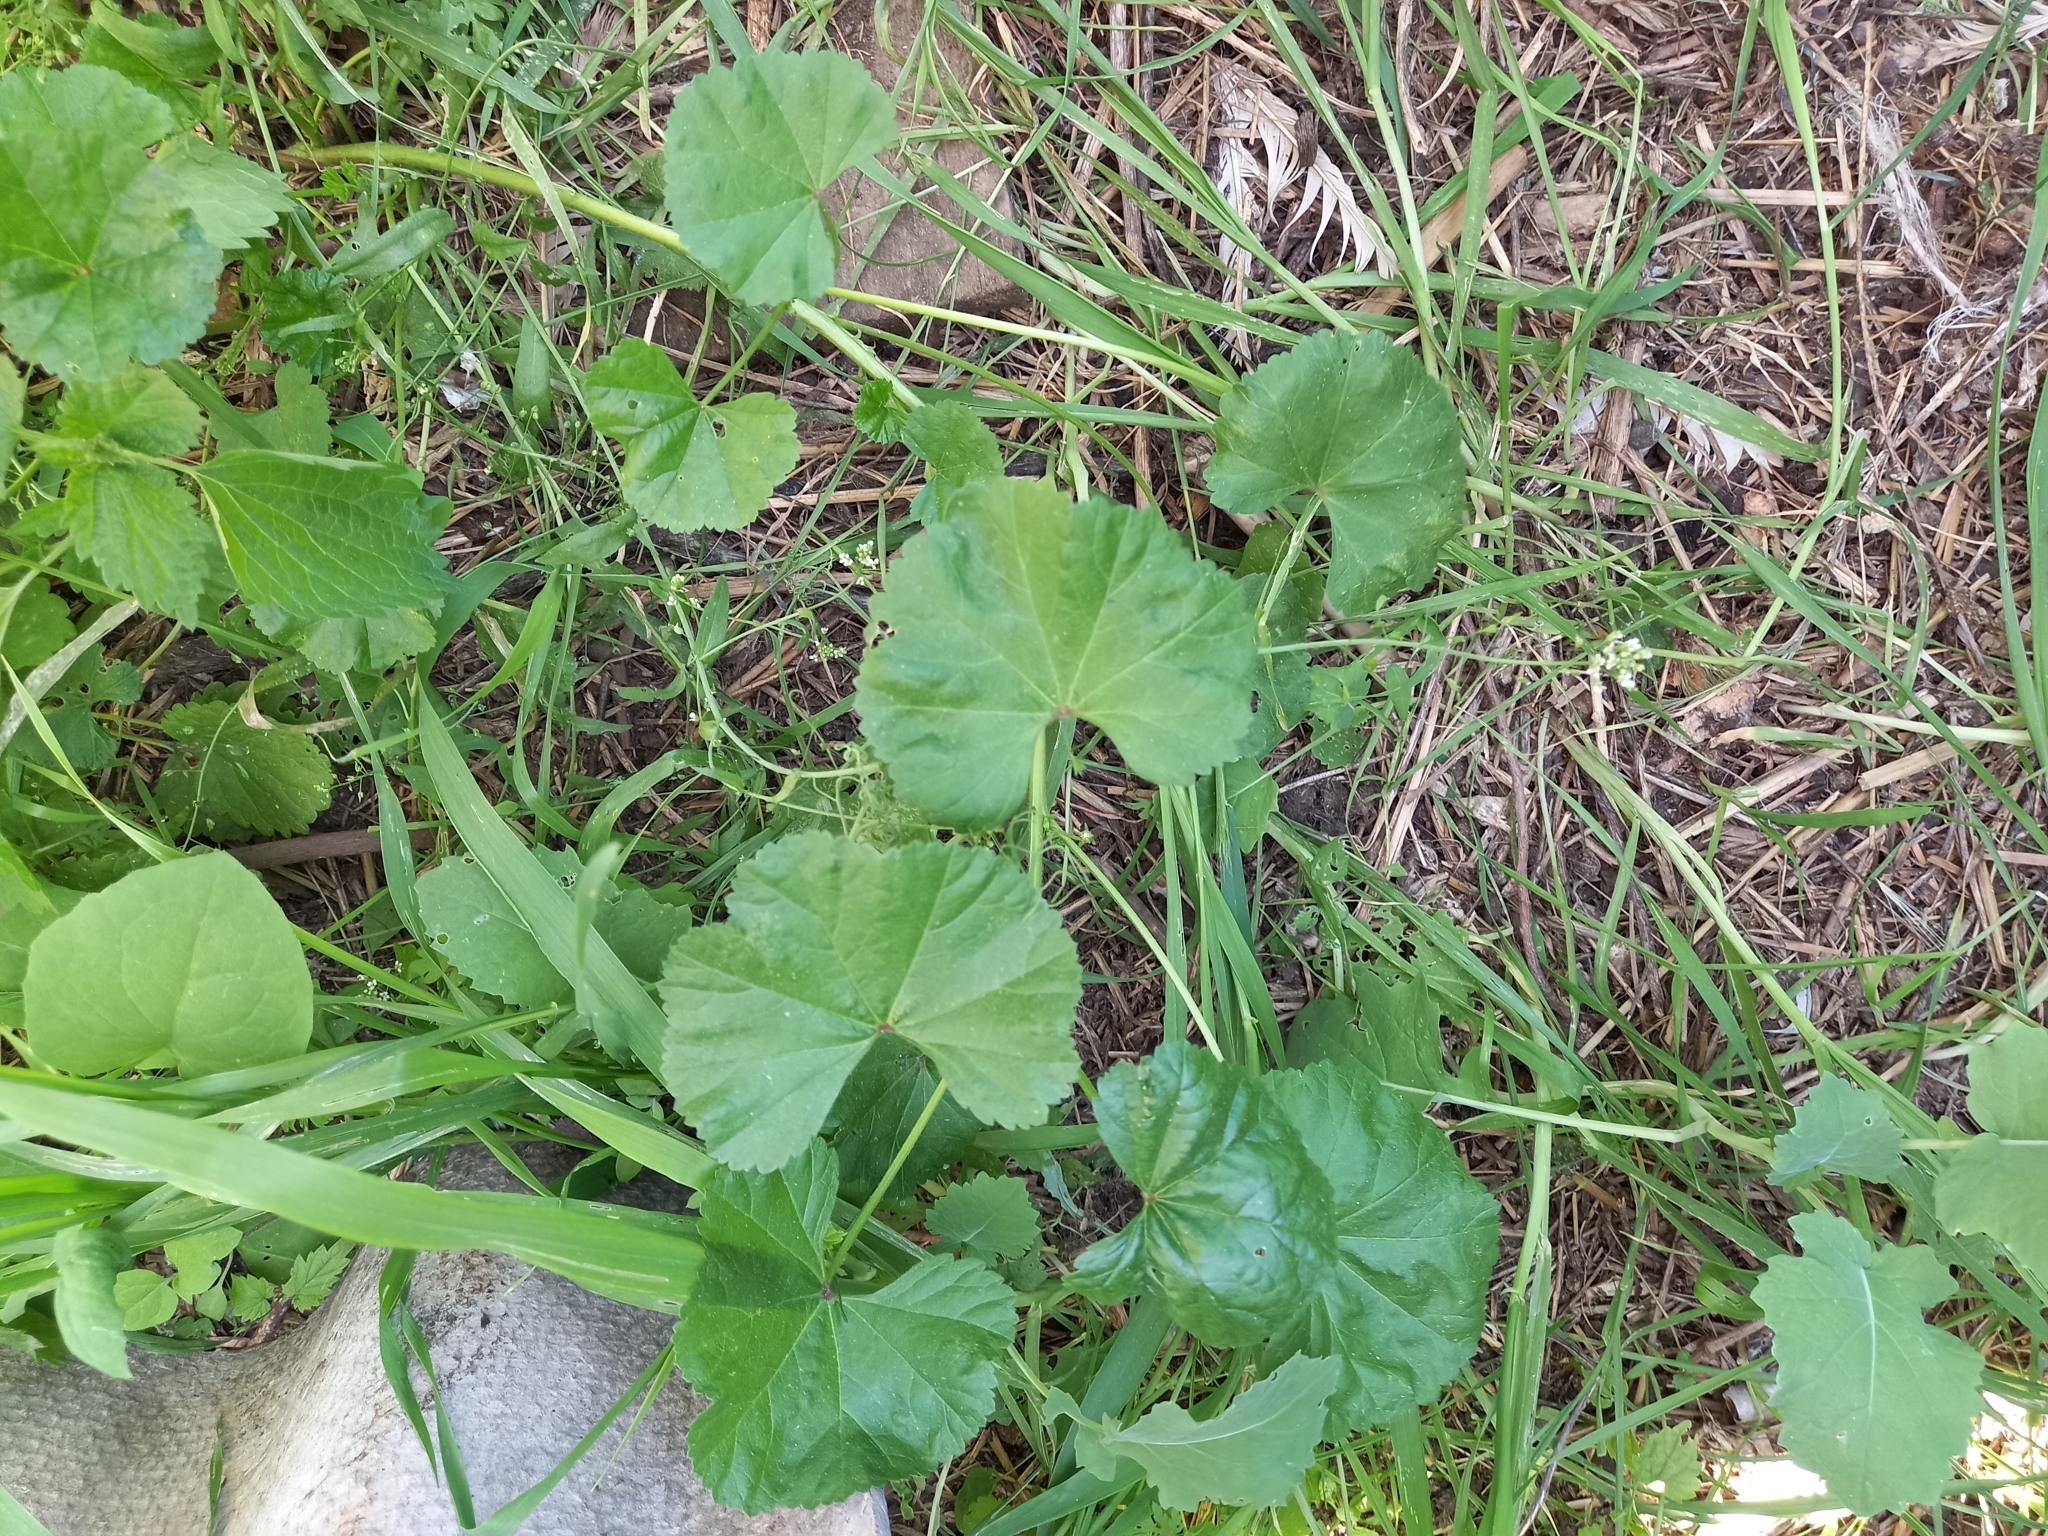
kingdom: Plantae
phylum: Tracheophyta
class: Magnoliopsida
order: Malvales
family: Malvaceae
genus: Malva
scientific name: Malva neglecta
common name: Common mallow
